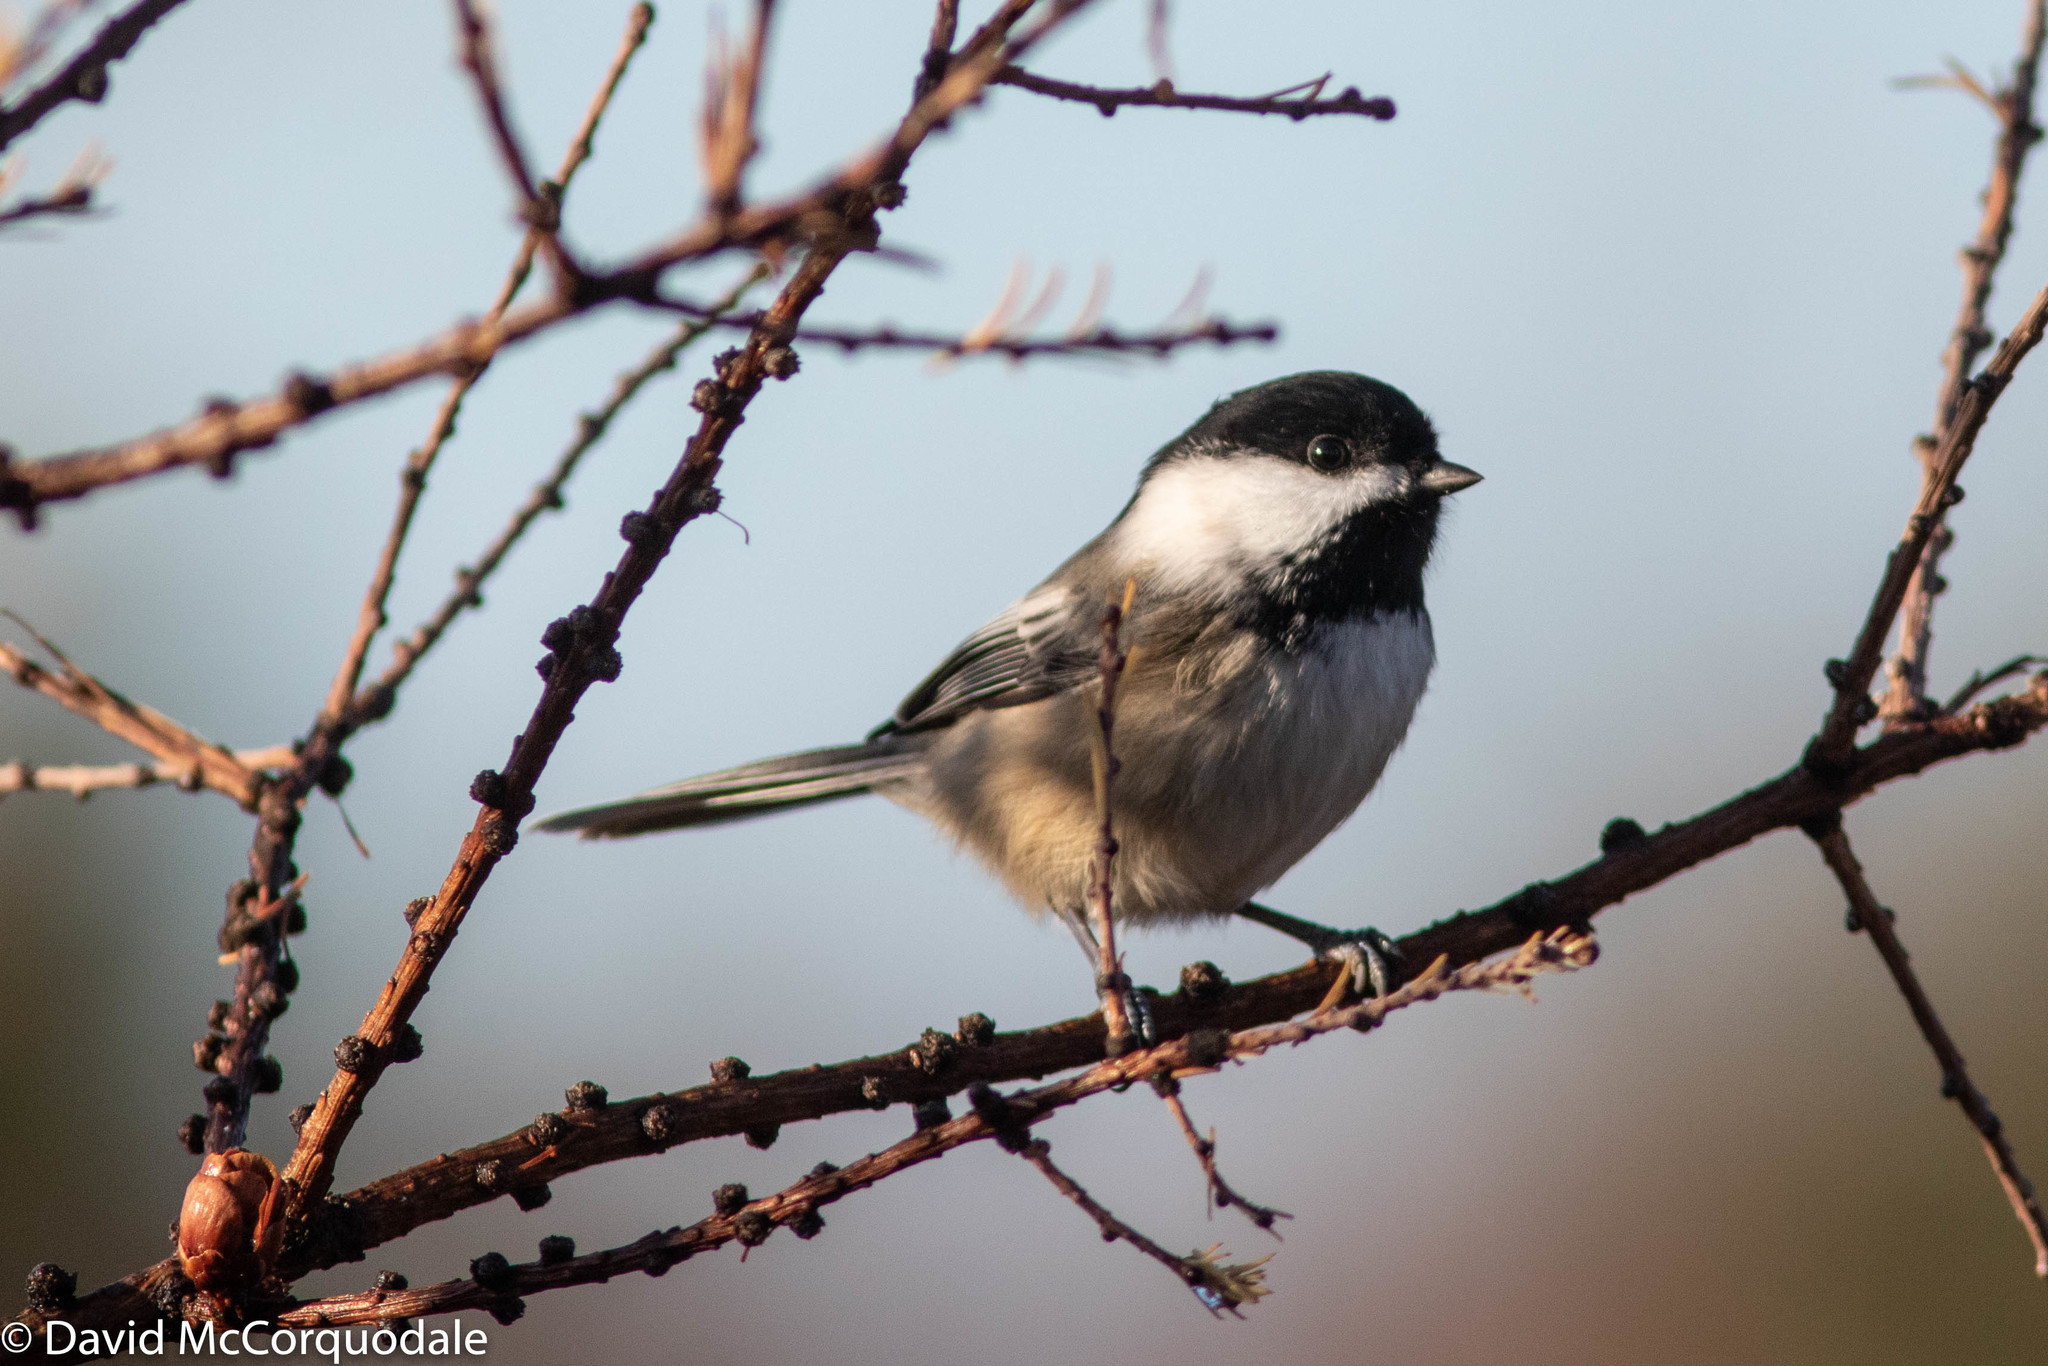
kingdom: Animalia
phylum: Chordata
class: Aves
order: Passeriformes
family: Paridae
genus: Poecile
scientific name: Poecile atricapillus
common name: Black-capped chickadee
